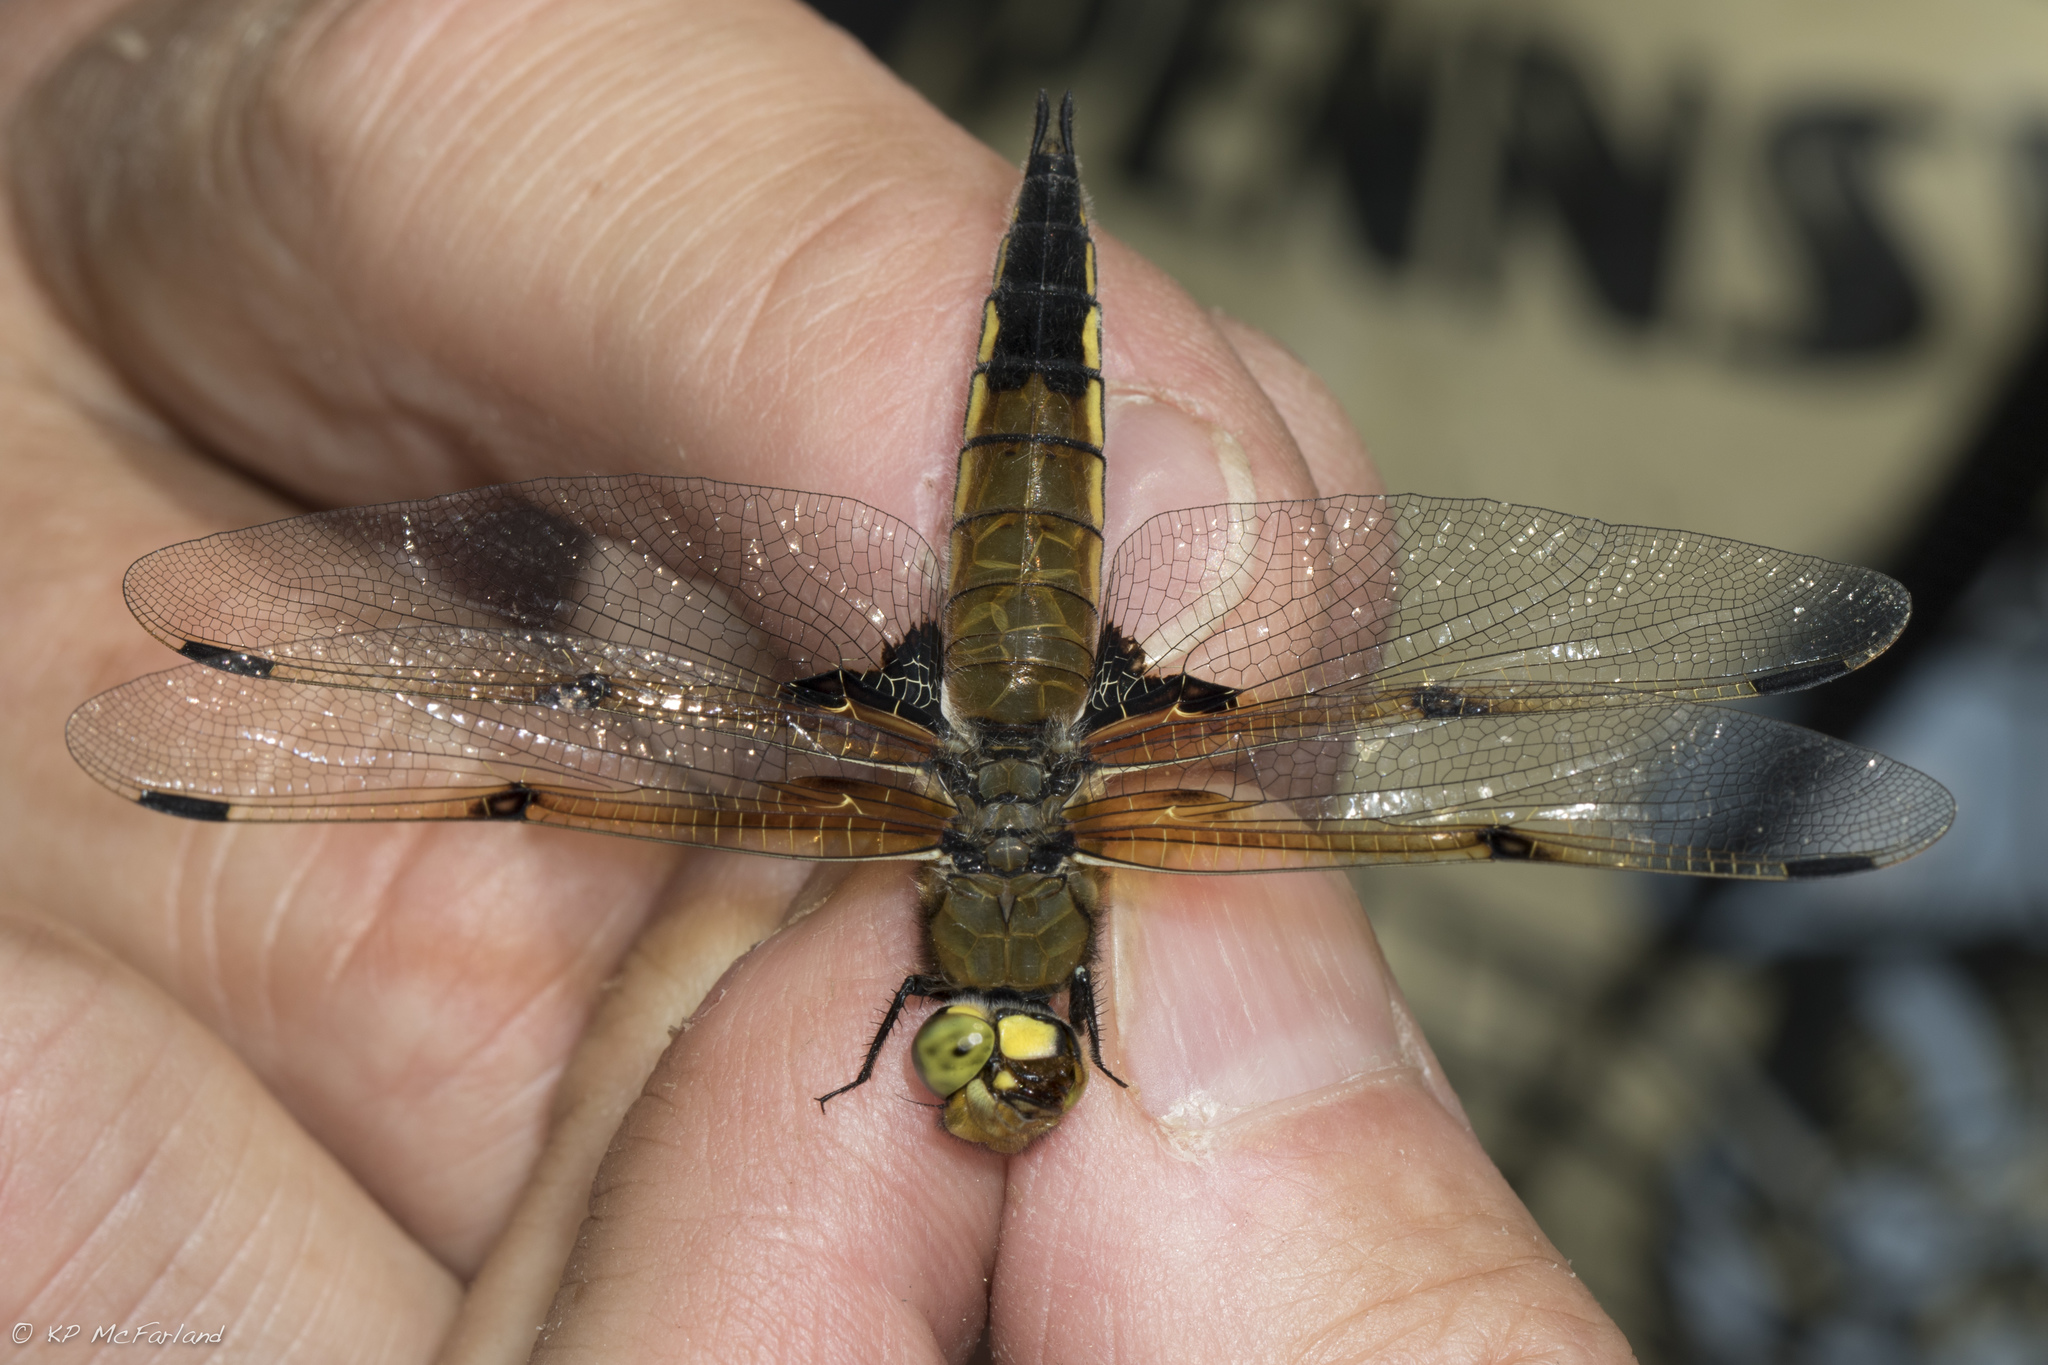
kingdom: Animalia
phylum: Arthropoda
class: Insecta
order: Odonata
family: Libellulidae
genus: Libellula
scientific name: Libellula quadrimaculata
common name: Four-spotted chaser
